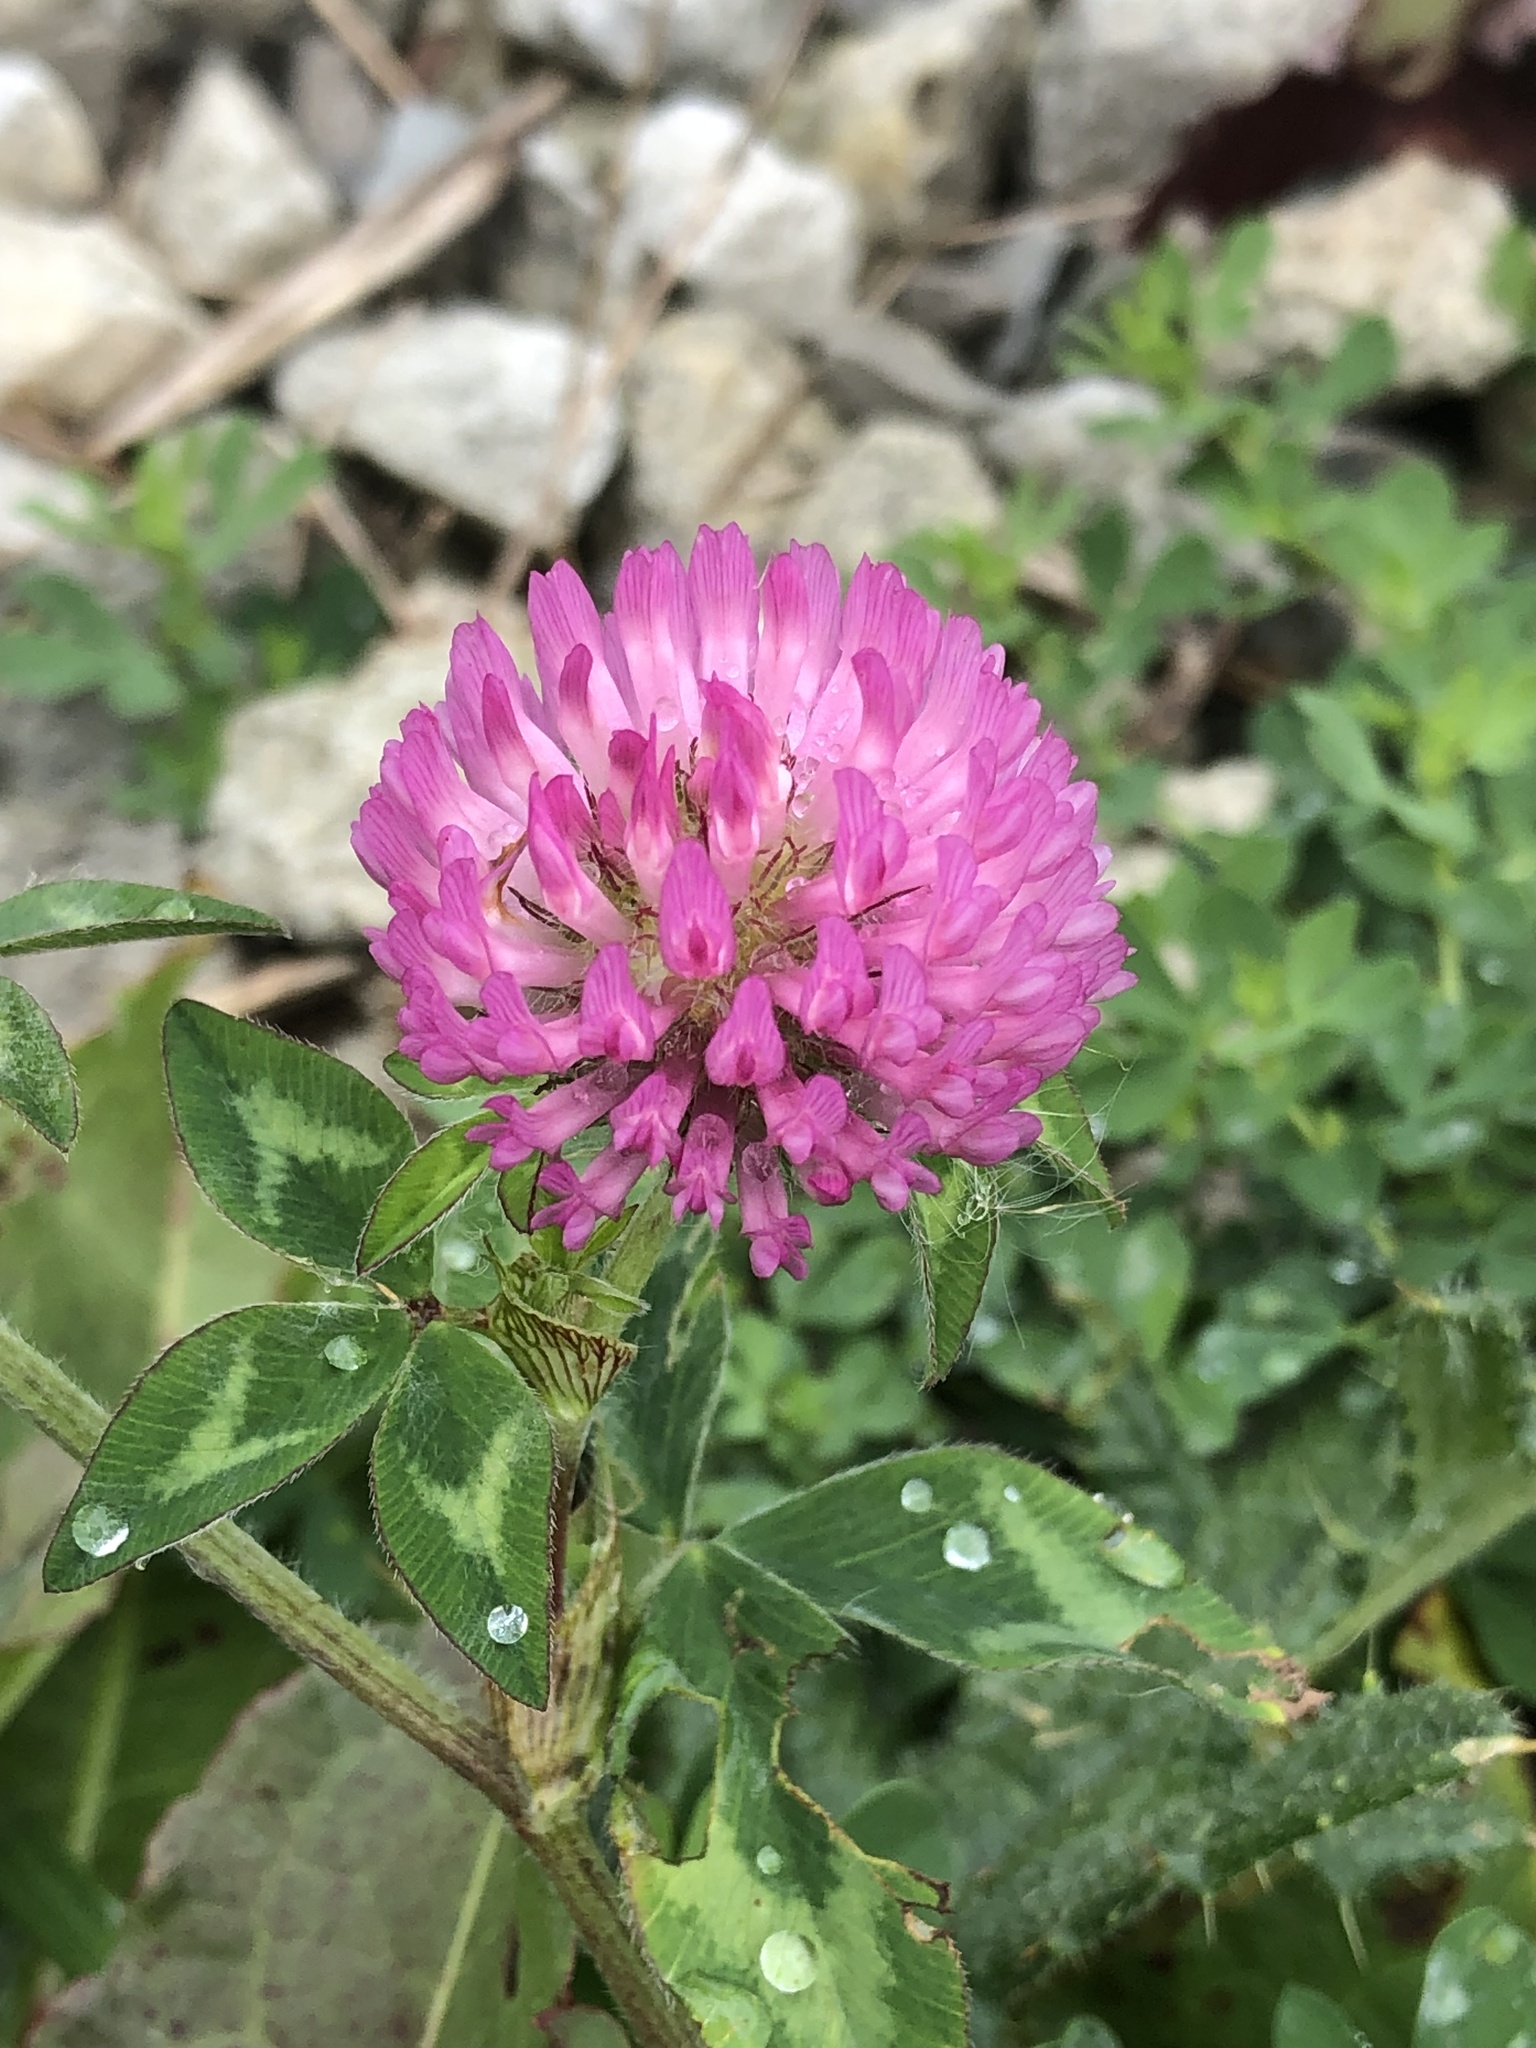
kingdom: Plantae
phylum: Tracheophyta
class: Magnoliopsida
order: Fabales
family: Fabaceae
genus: Trifolium
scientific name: Trifolium pratense
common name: Red clover
